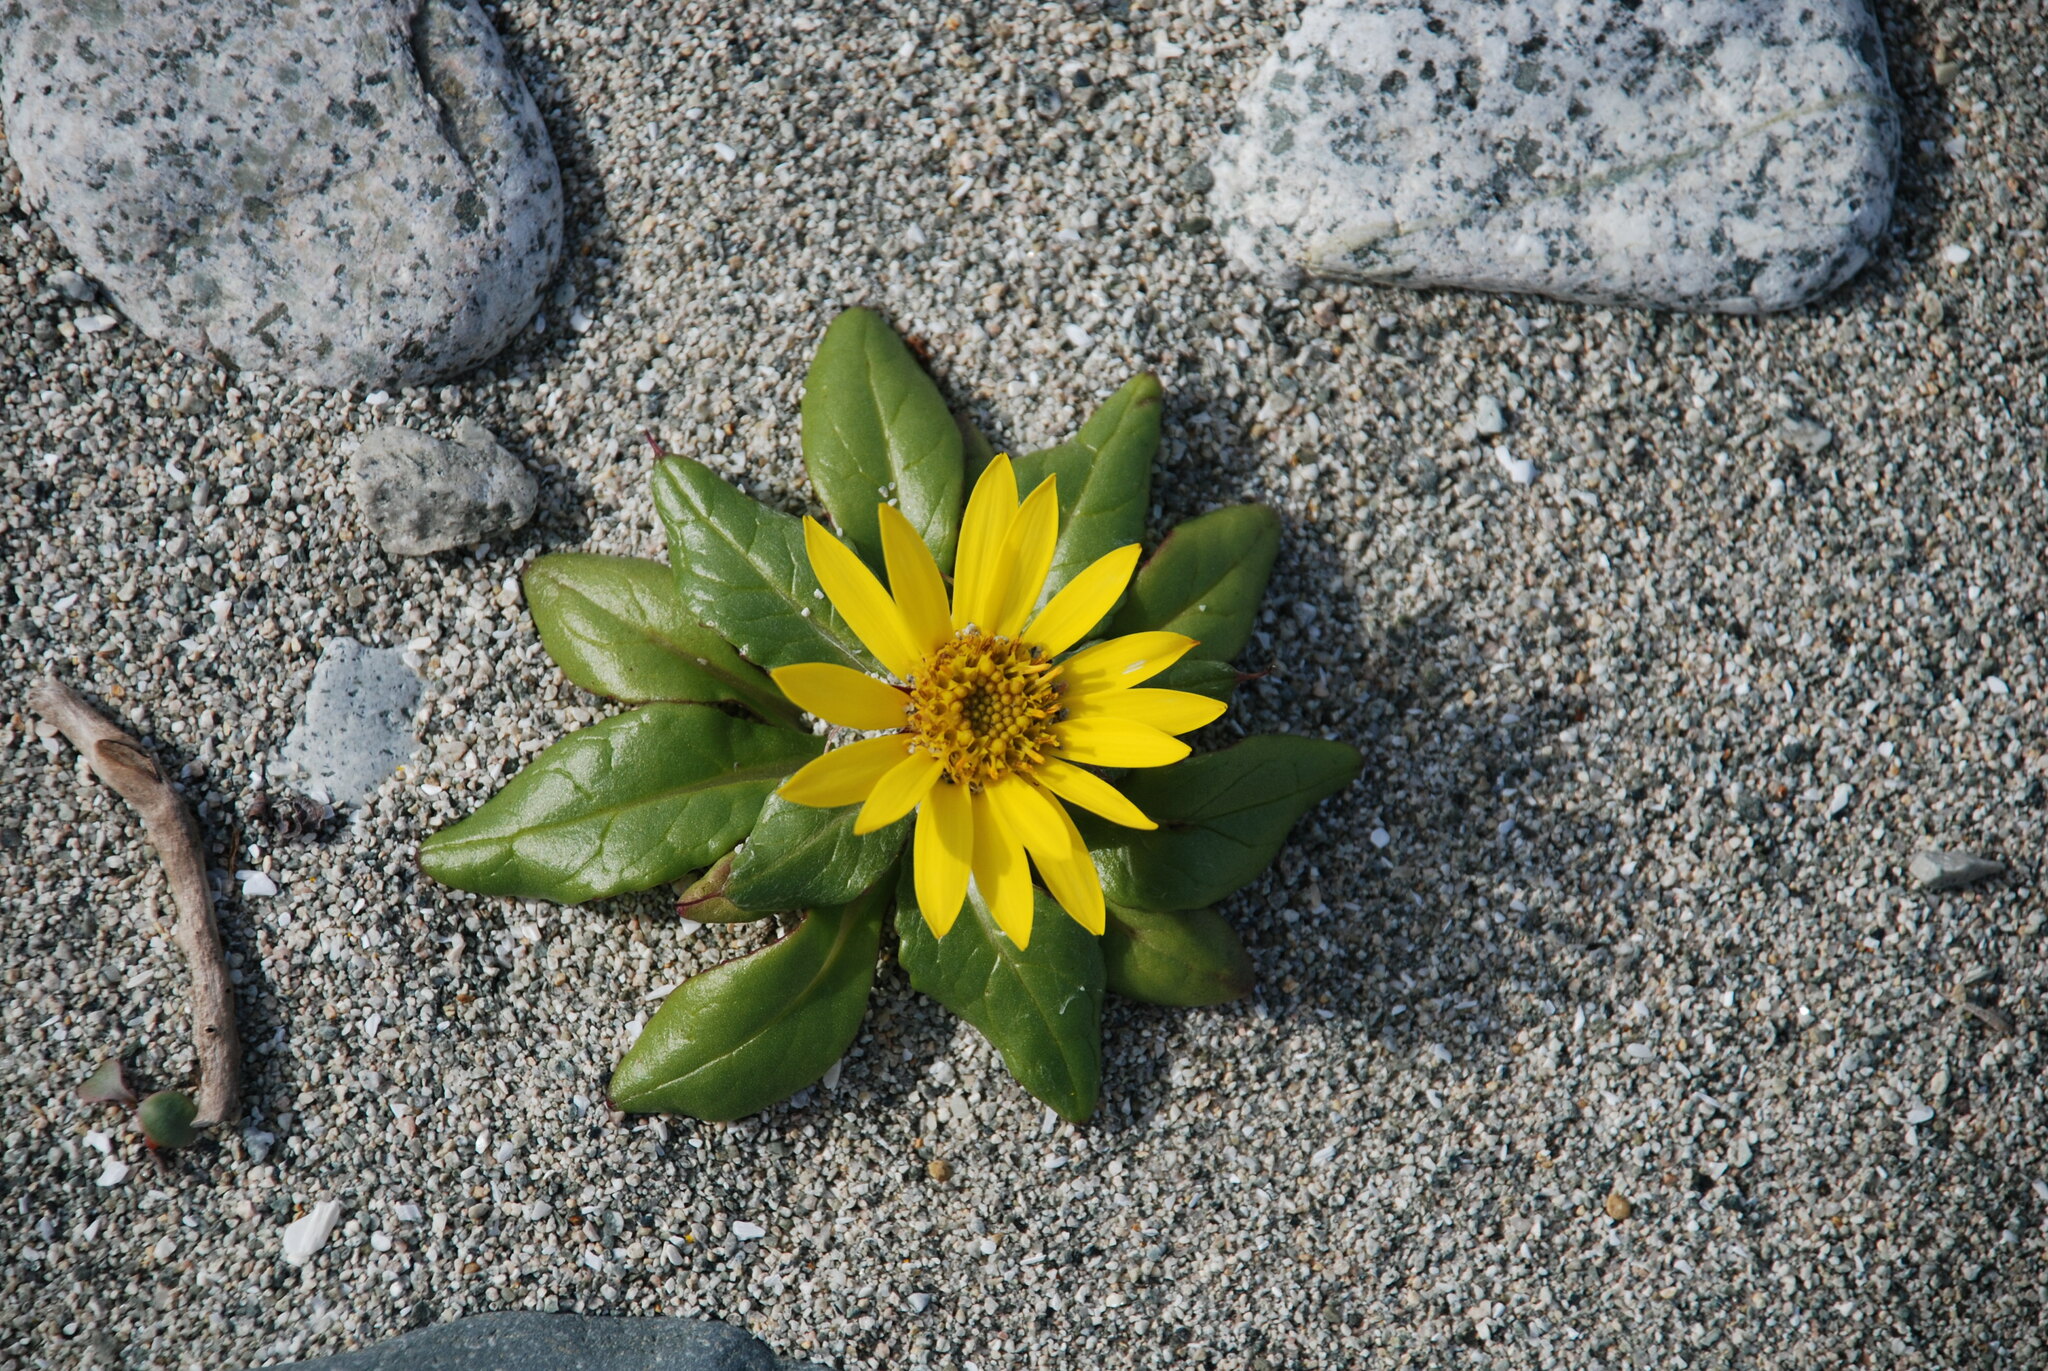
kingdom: Plantae
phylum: Tracheophyta
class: Magnoliopsida
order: Asterales
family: Asteraceae
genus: Jacobaea
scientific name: Jacobaea pseudoarnica
